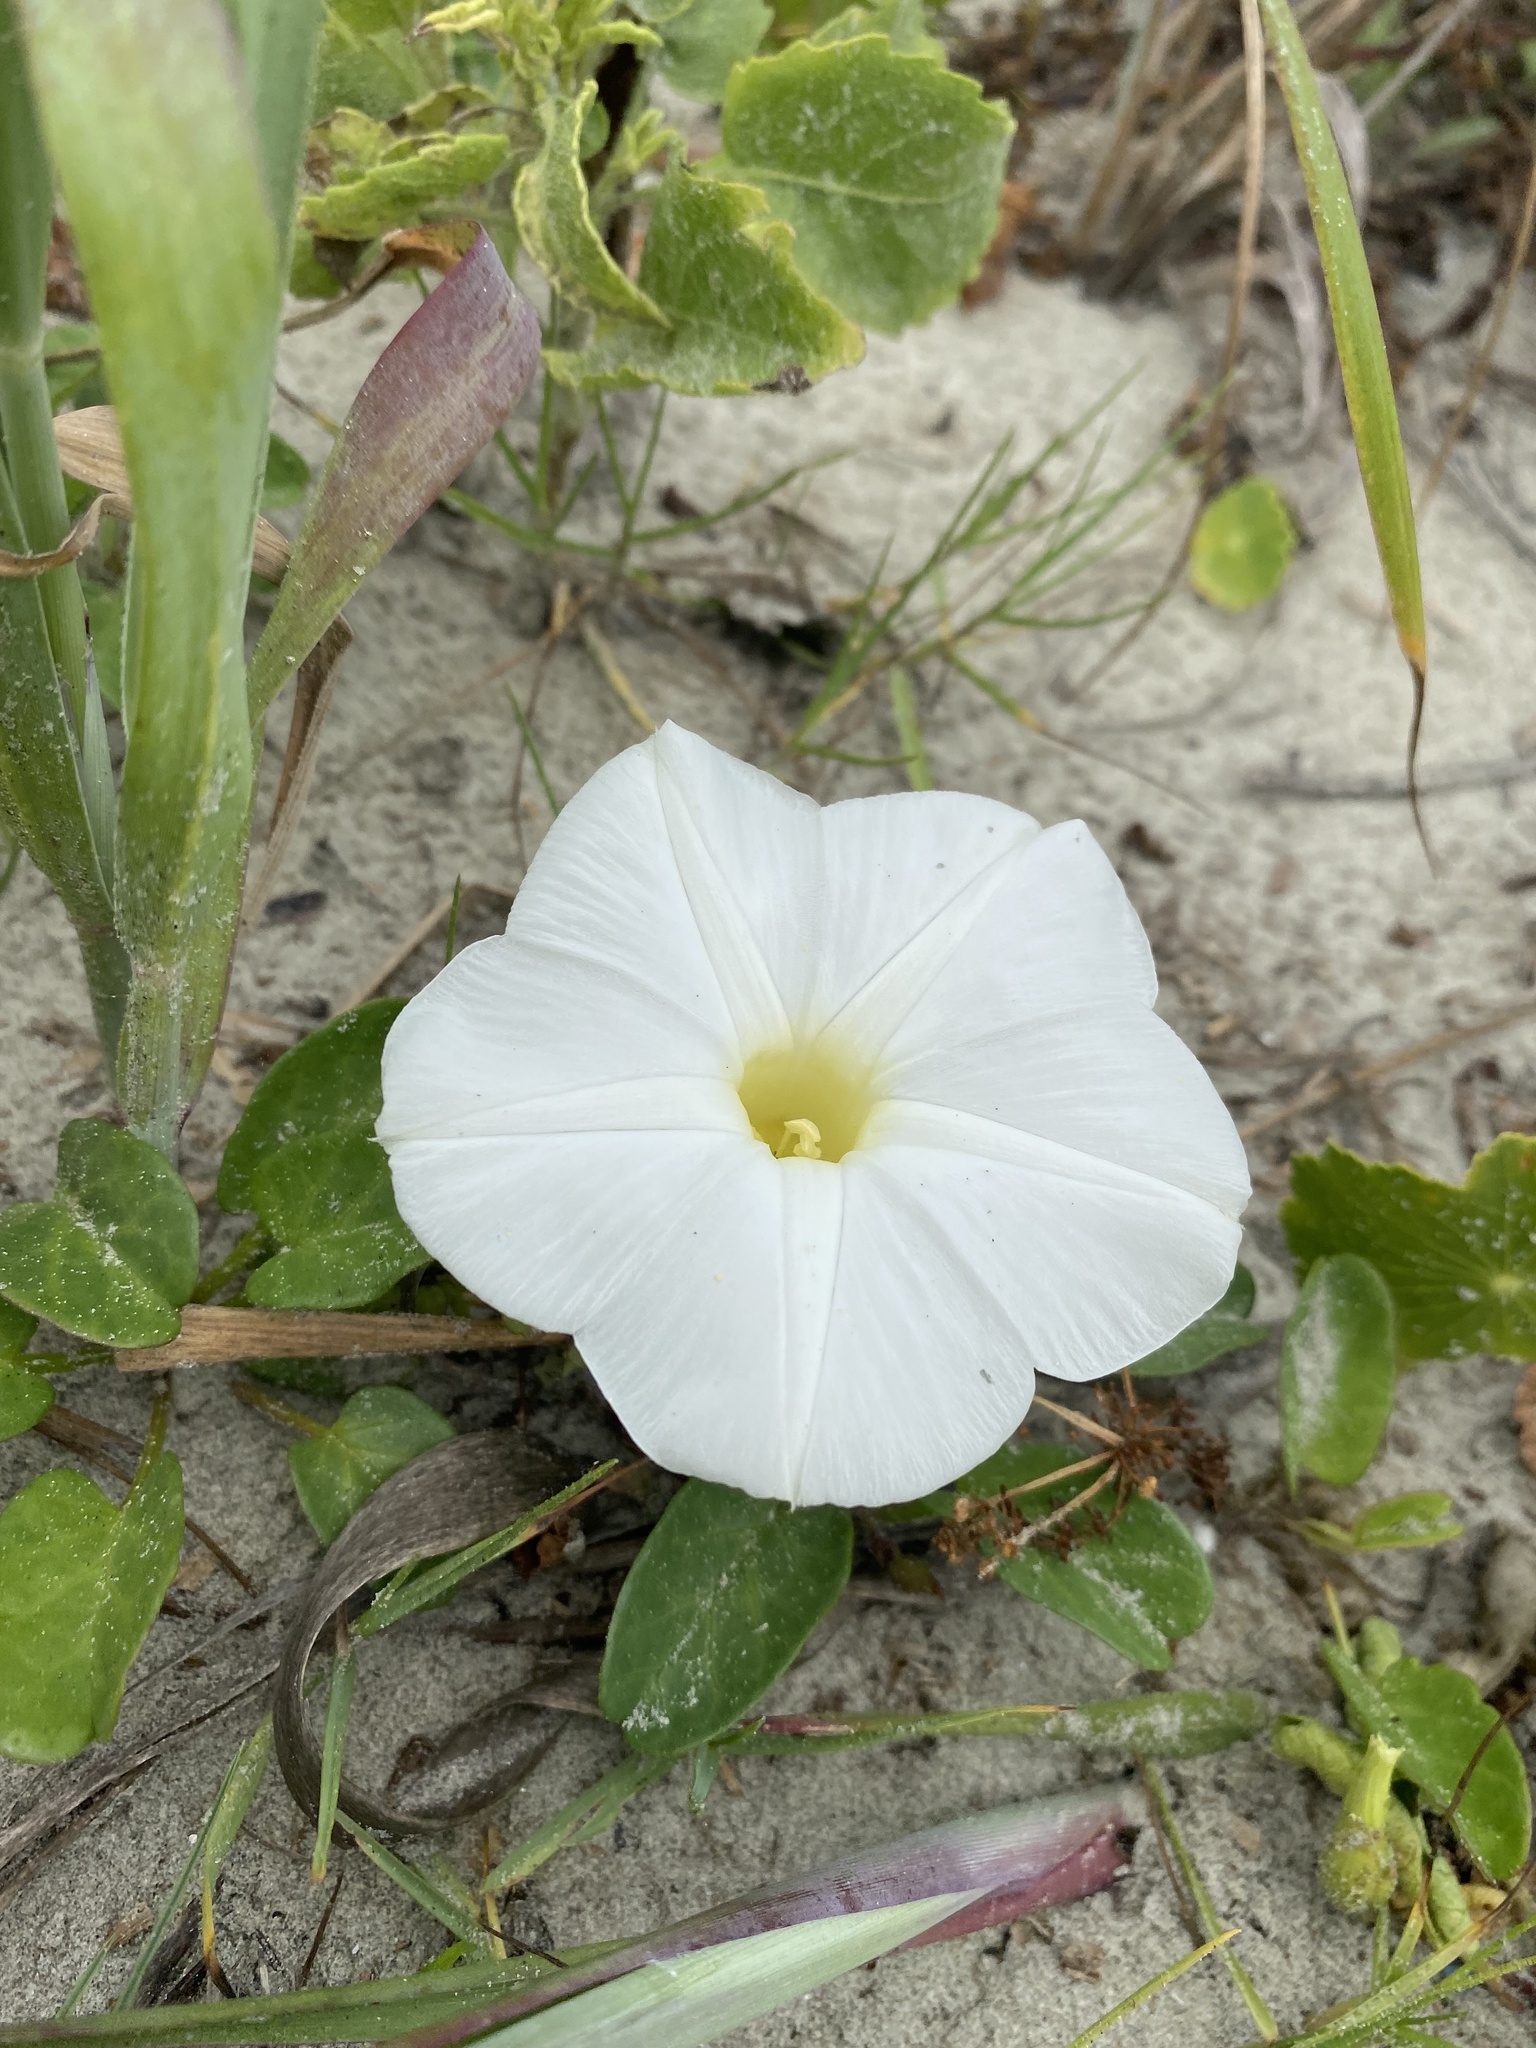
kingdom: Plantae
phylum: Tracheophyta
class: Magnoliopsida
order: Solanales
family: Convolvulaceae
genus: Ipomoea
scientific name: Ipomoea imperati
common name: Fiddle-leaf morning-glory
